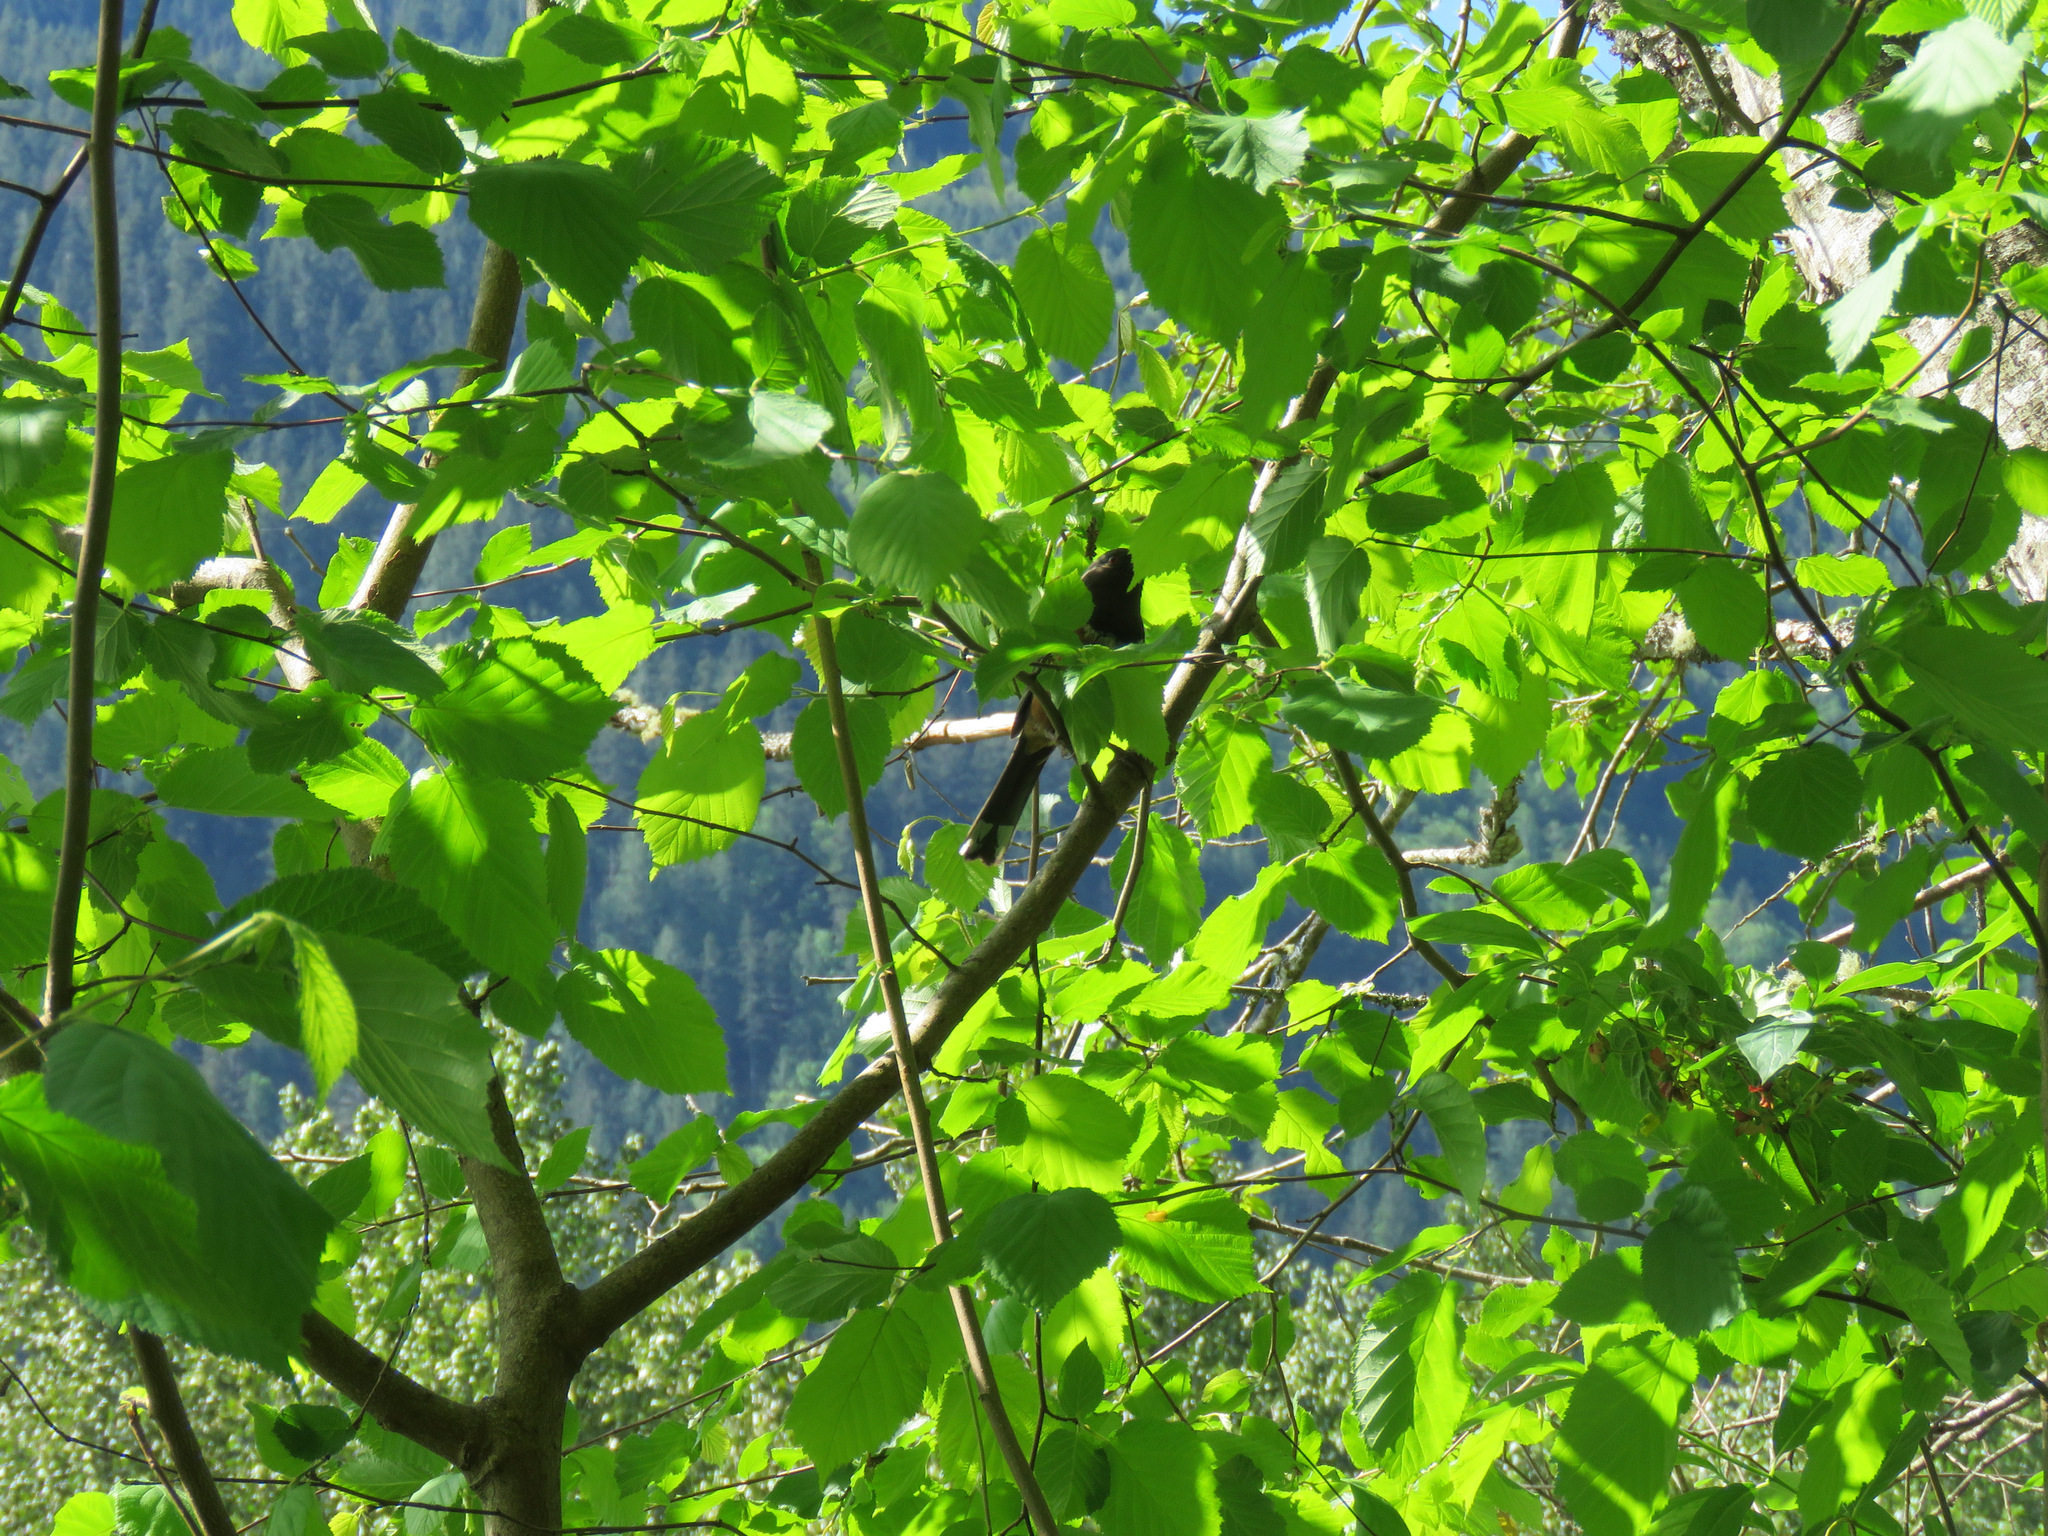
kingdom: Animalia
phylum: Chordata
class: Aves
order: Passeriformes
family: Passerellidae
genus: Pipilo
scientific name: Pipilo maculatus
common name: Spotted towhee
